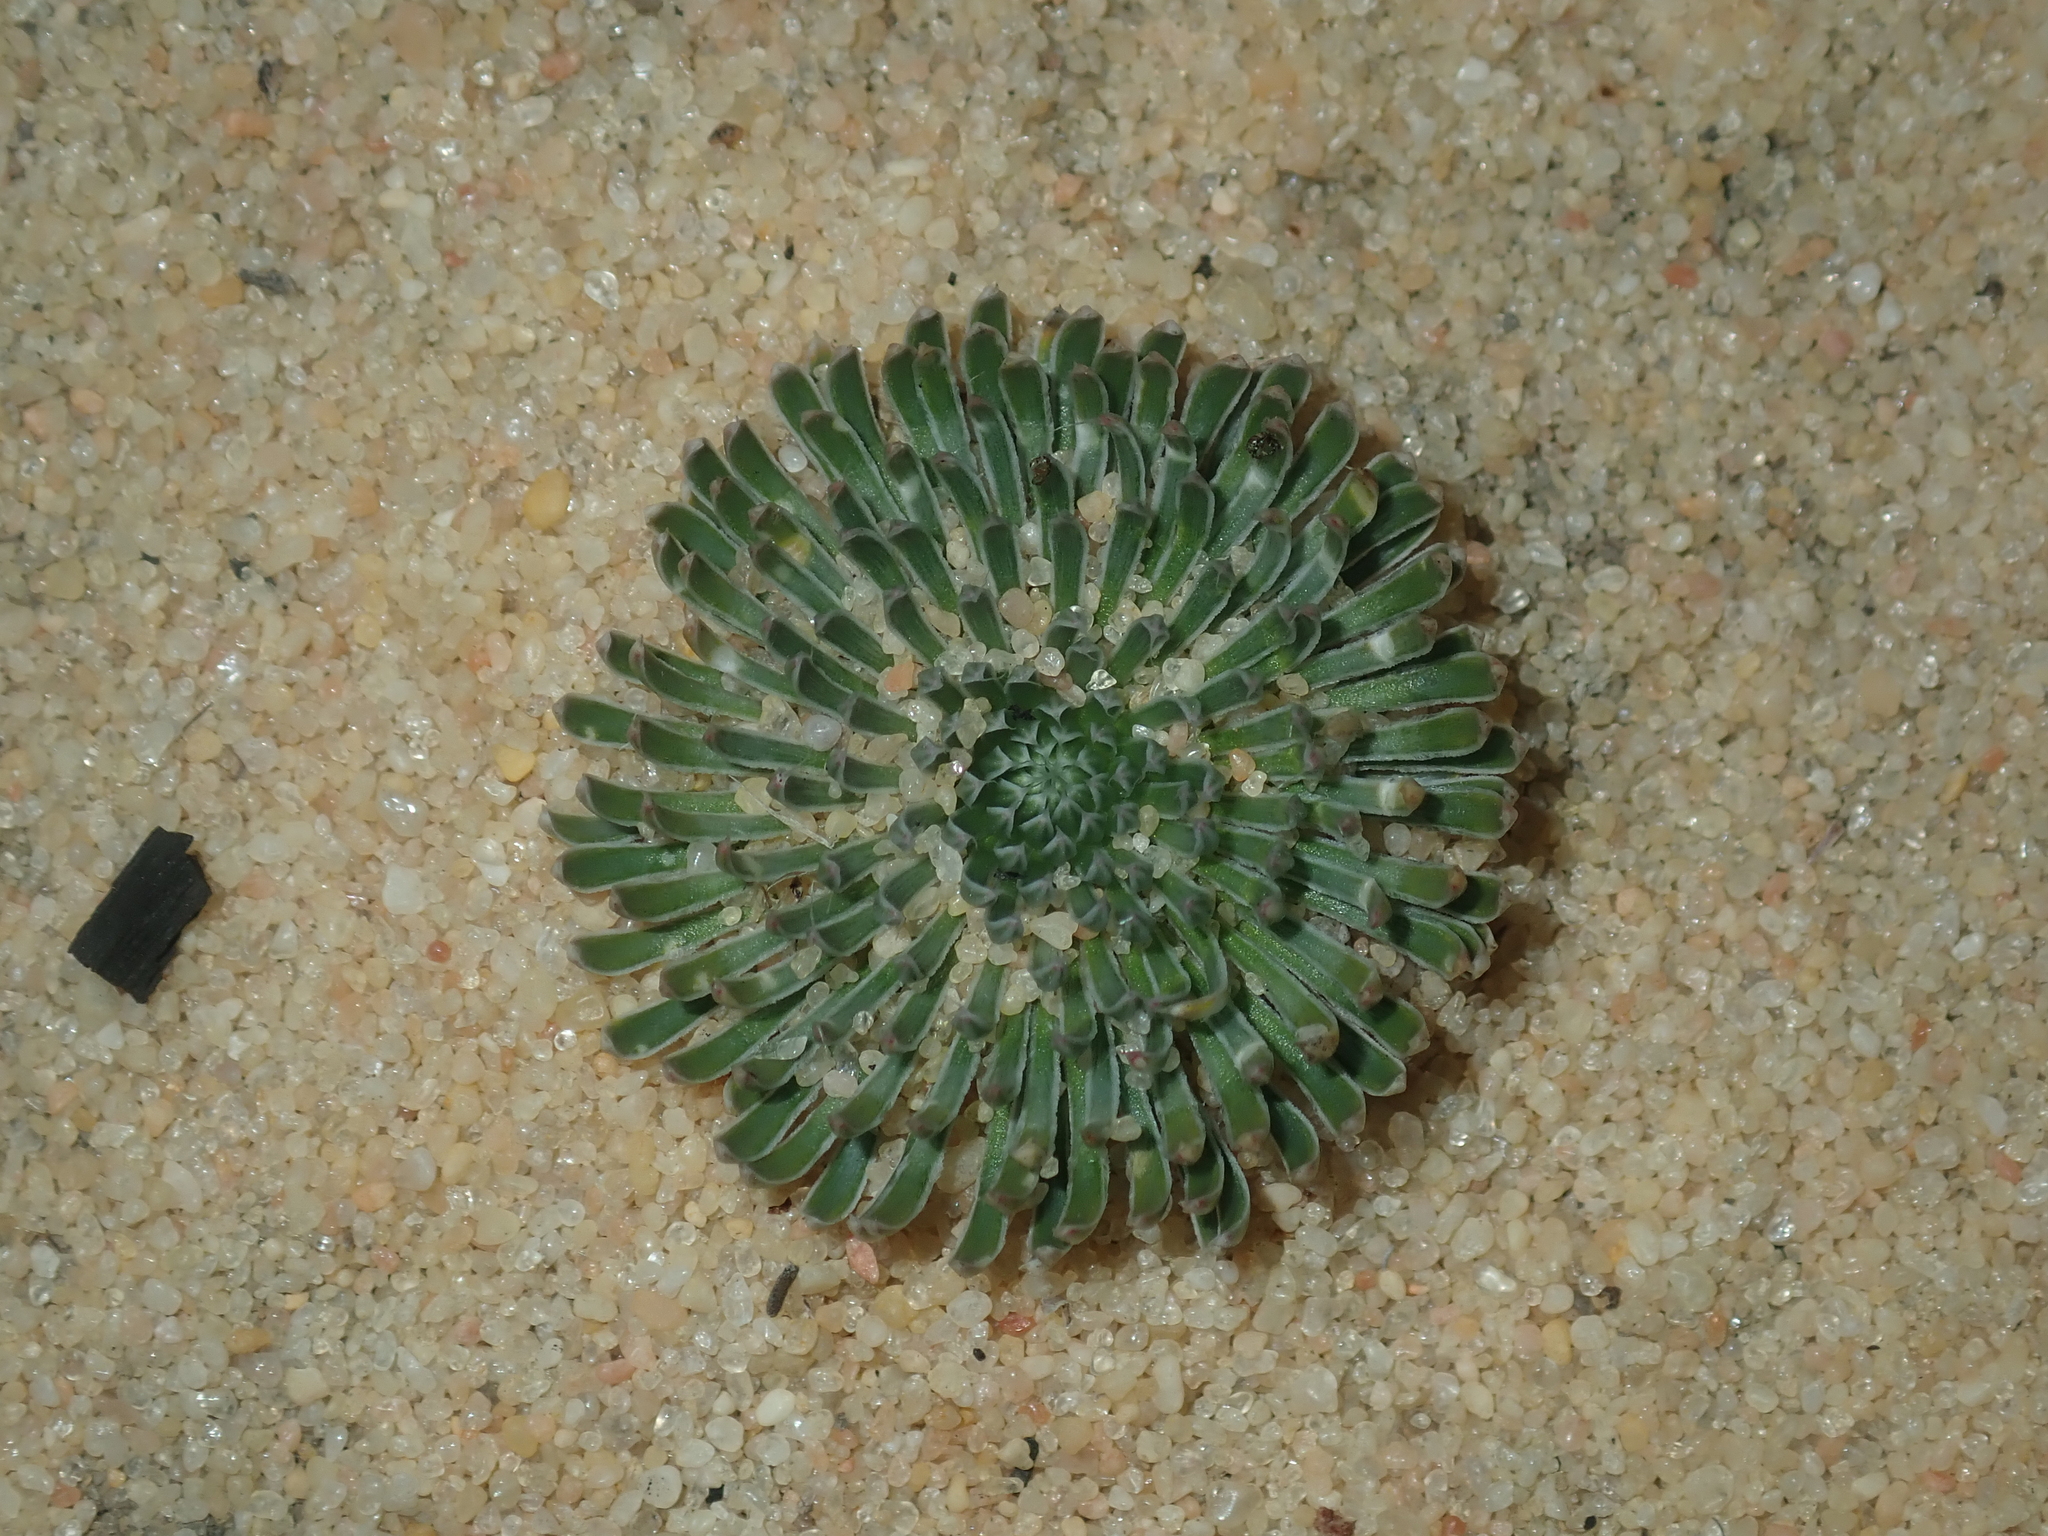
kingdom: Plantae
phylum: Tracheophyta
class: Magnoliopsida
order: Asterales
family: Stylidiaceae
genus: Stylidium
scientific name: Stylidium ponticulus
